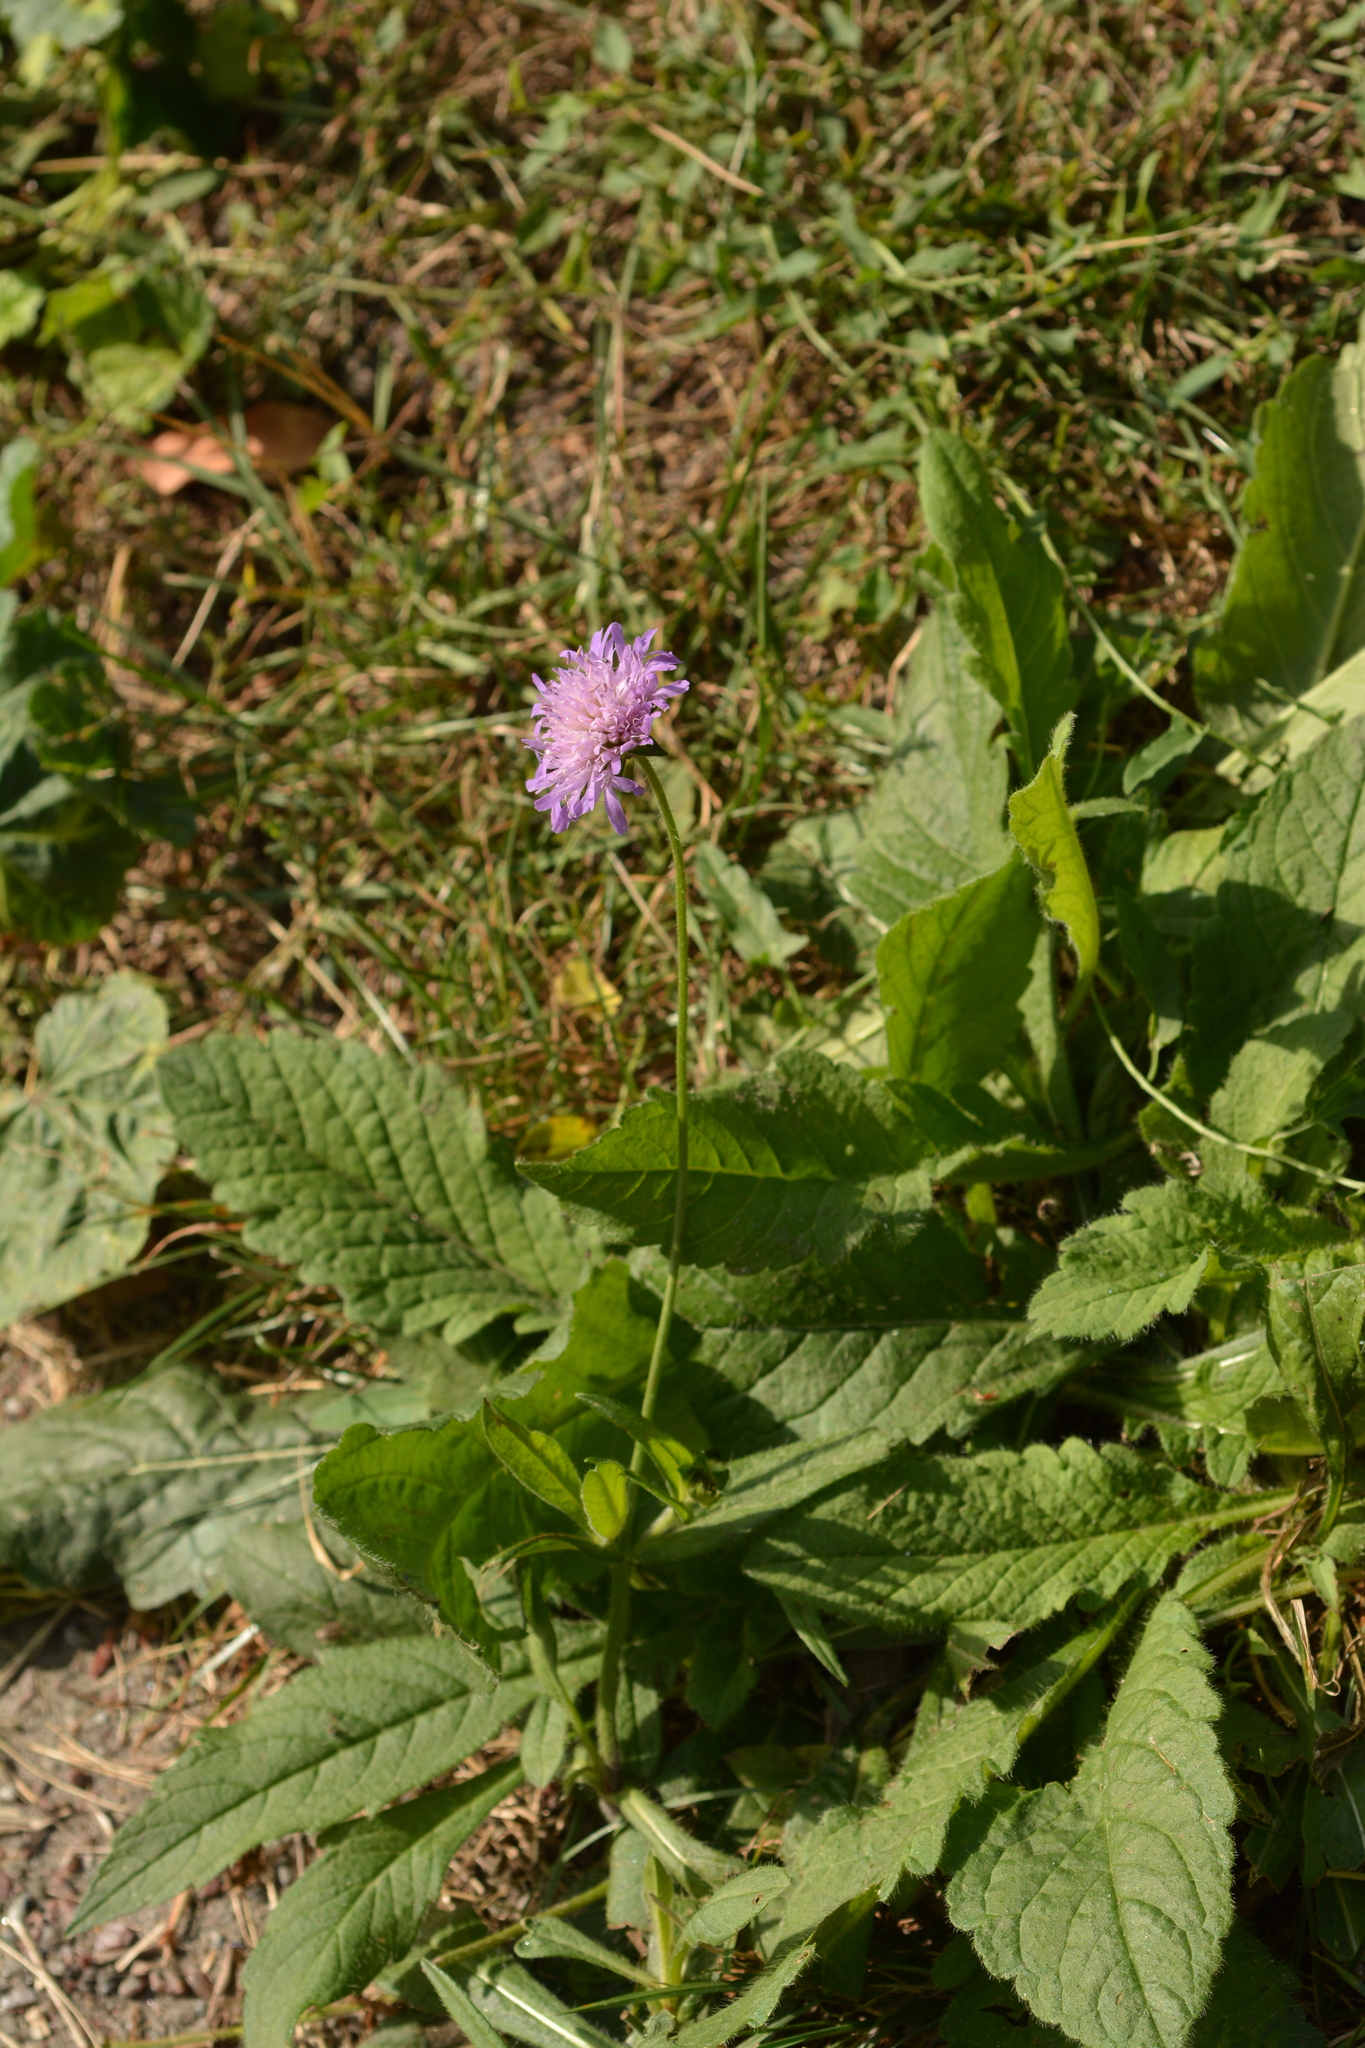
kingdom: Plantae
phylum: Tracheophyta
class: Magnoliopsida
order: Dipsacales
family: Caprifoliaceae
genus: Knautia
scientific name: Knautia arvensis
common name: Field scabiosa
